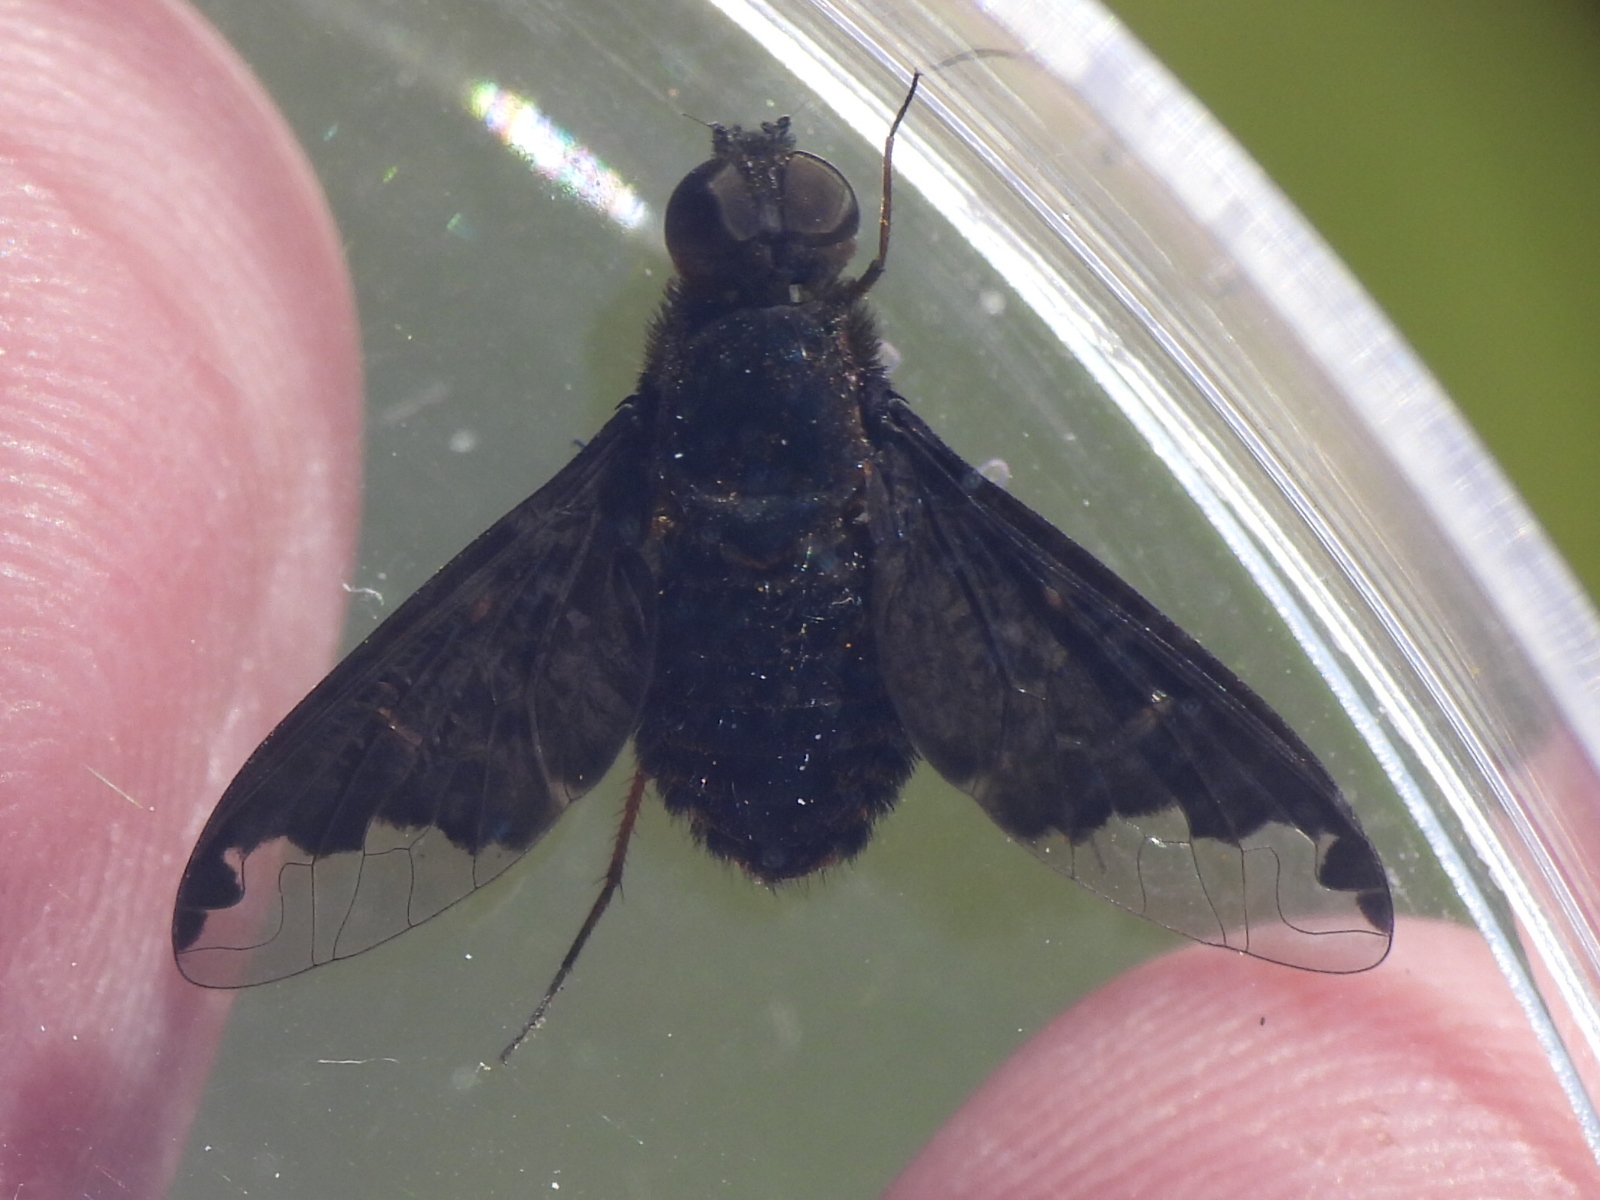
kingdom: Animalia
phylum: Arthropoda
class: Insecta
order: Diptera
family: Bombyliidae
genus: Hemipenthes
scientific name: Hemipenthes sinuosus
